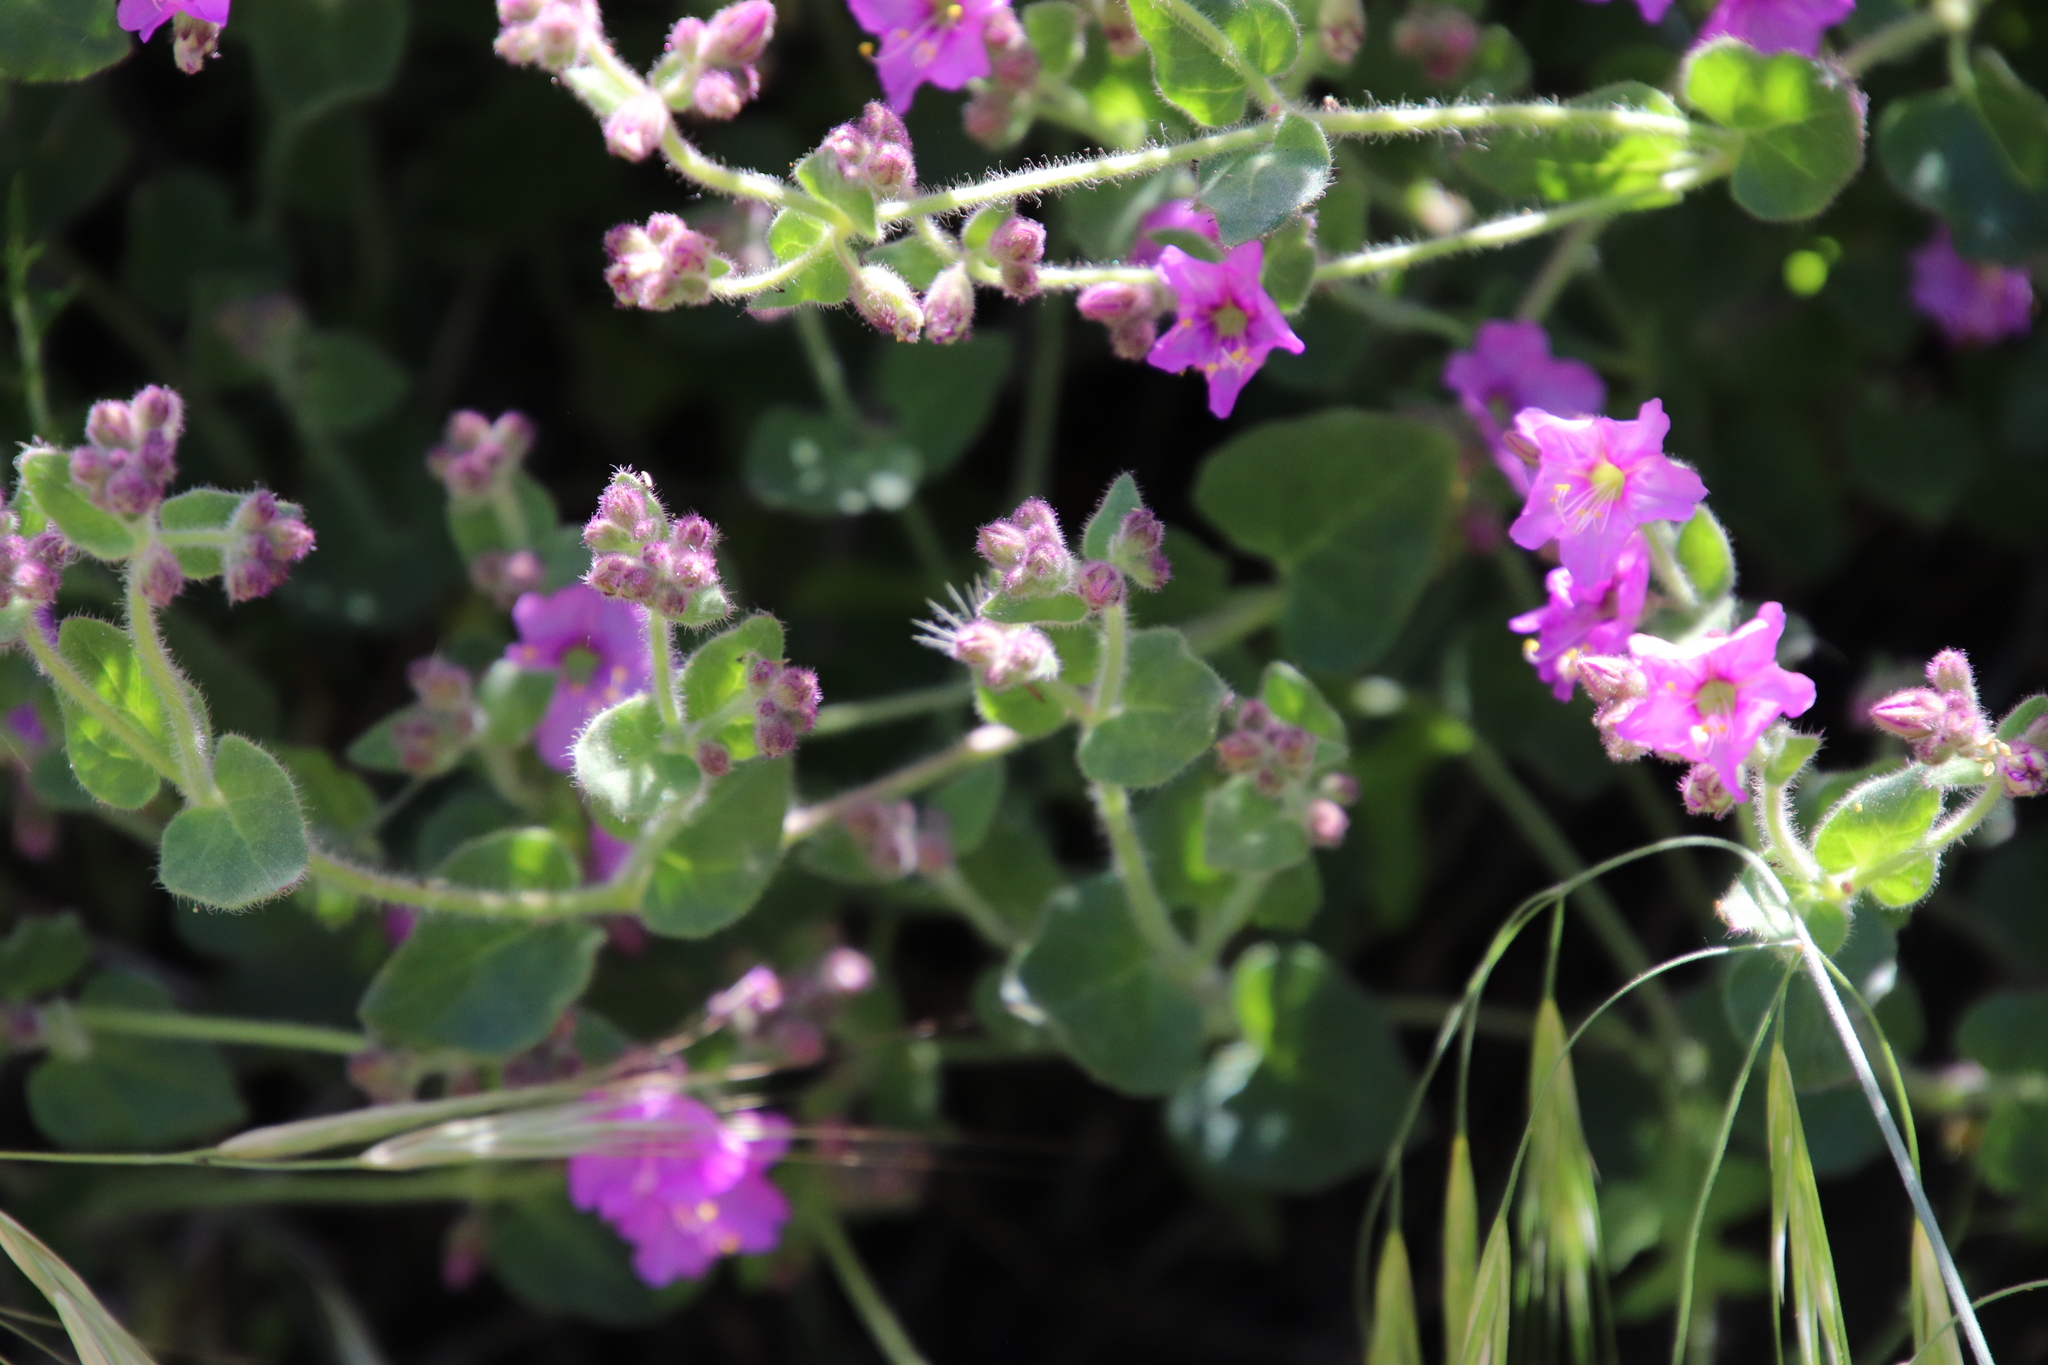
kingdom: Plantae
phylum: Tracheophyta
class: Magnoliopsida
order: Caryophyllales
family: Nyctaginaceae
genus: Mirabilis
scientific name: Mirabilis laevis
